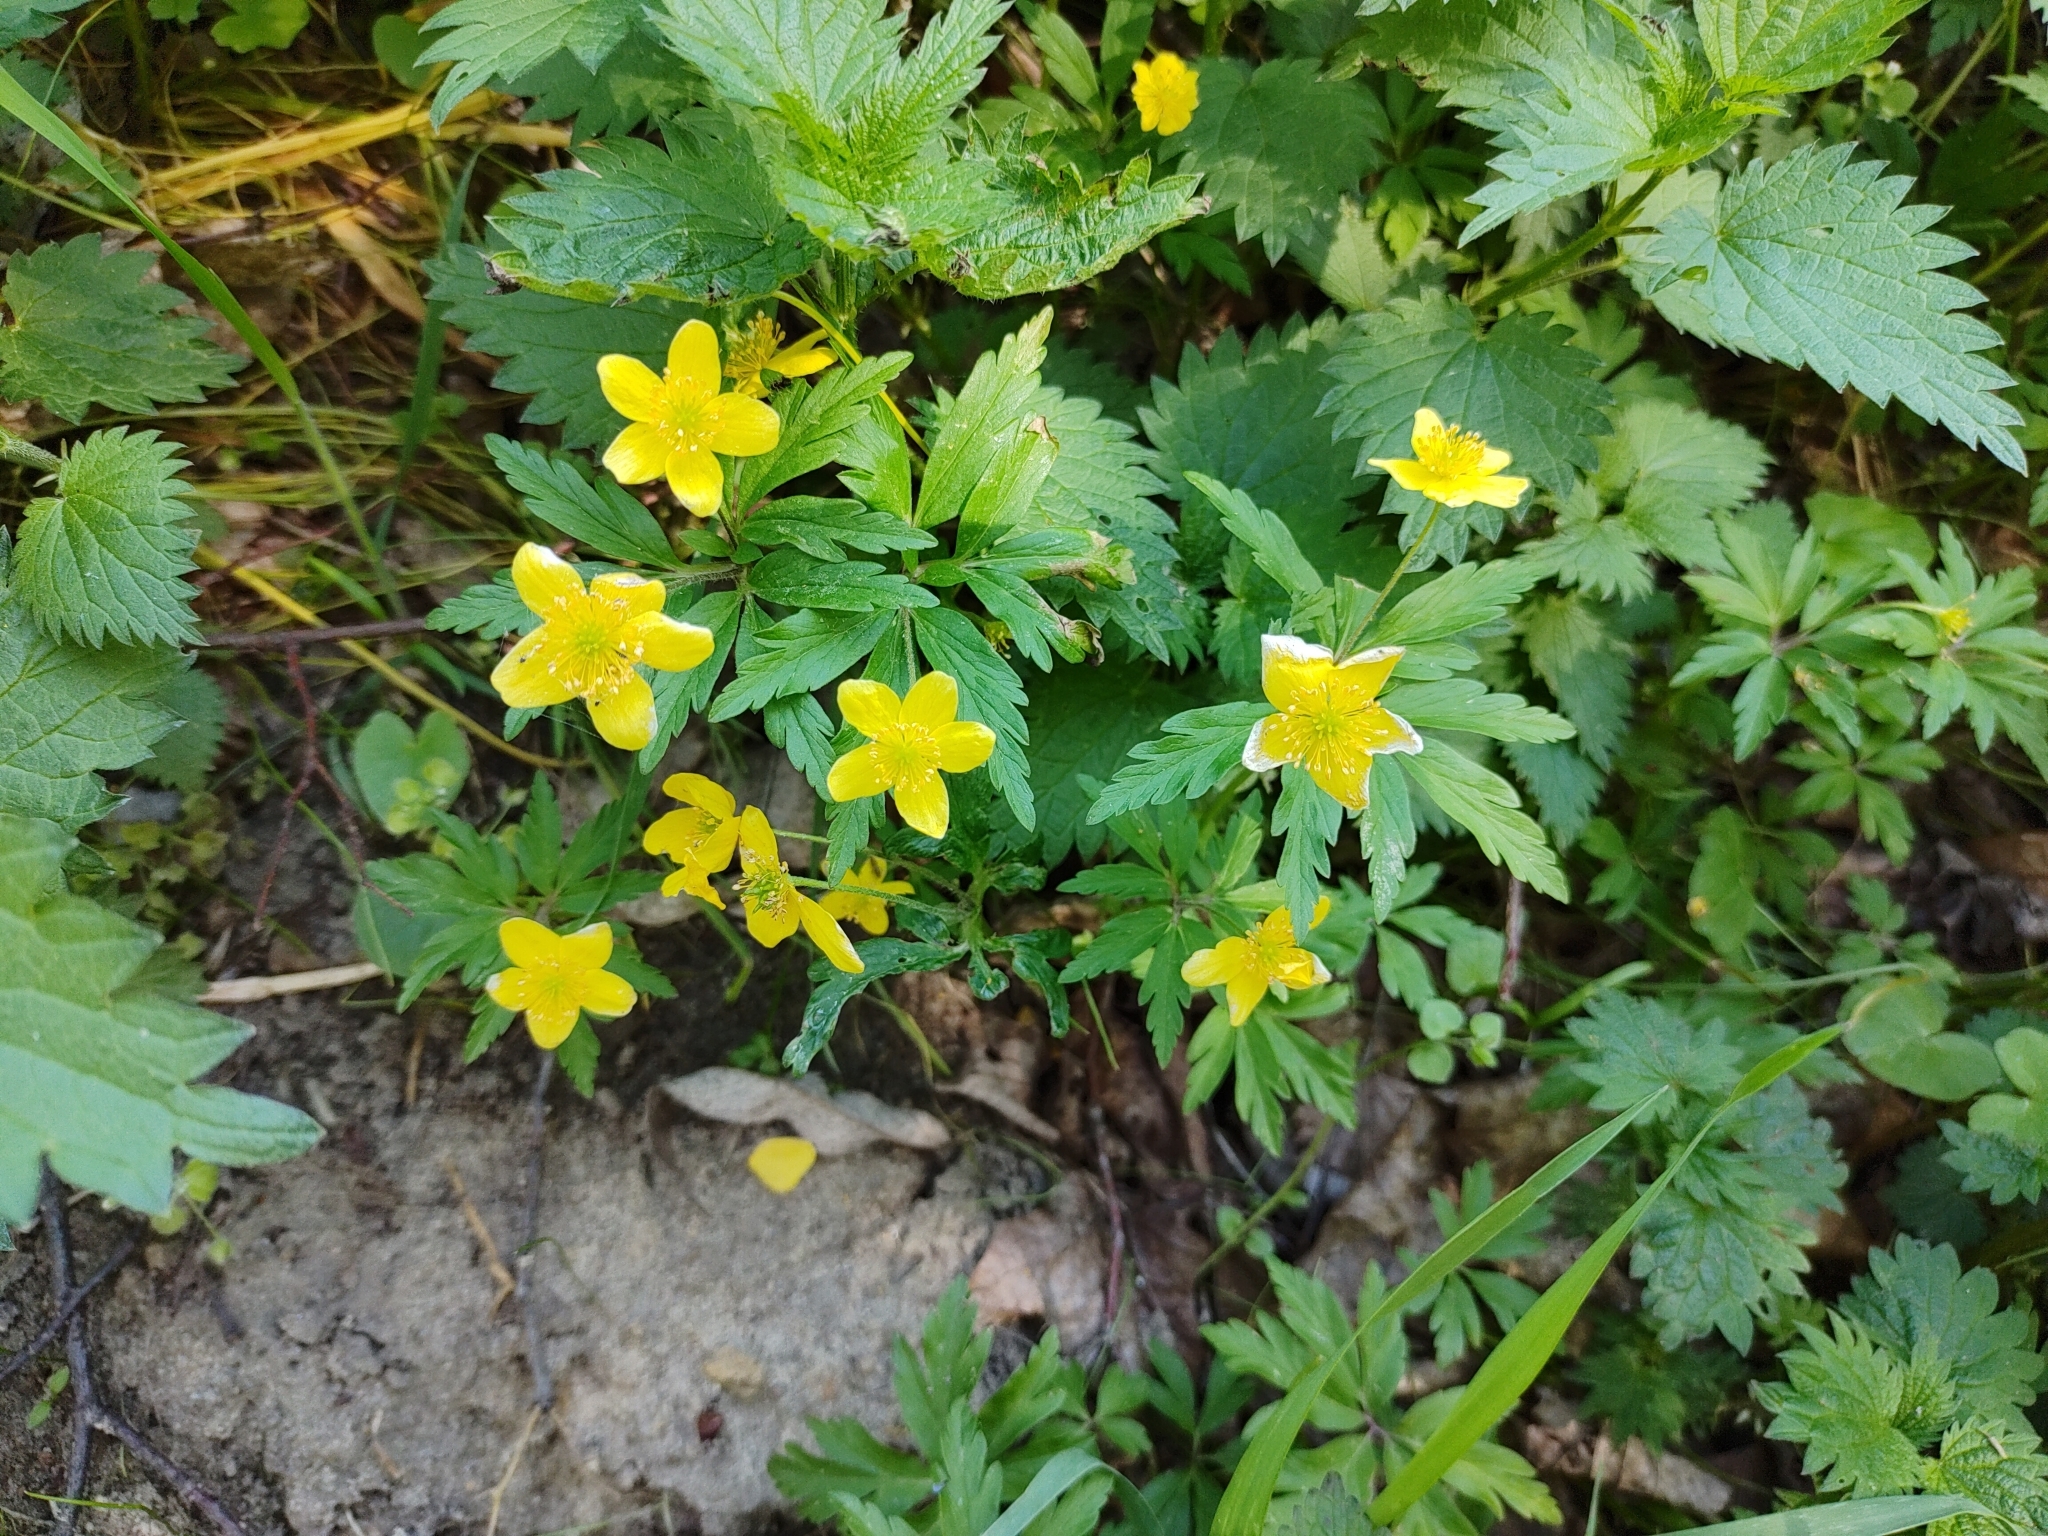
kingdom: Plantae
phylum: Tracheophyta
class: Magnoliopsida
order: Ranunculales
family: Ranunculaceae
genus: Anemone
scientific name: Anemone ranunculoides
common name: Yellow anemone
